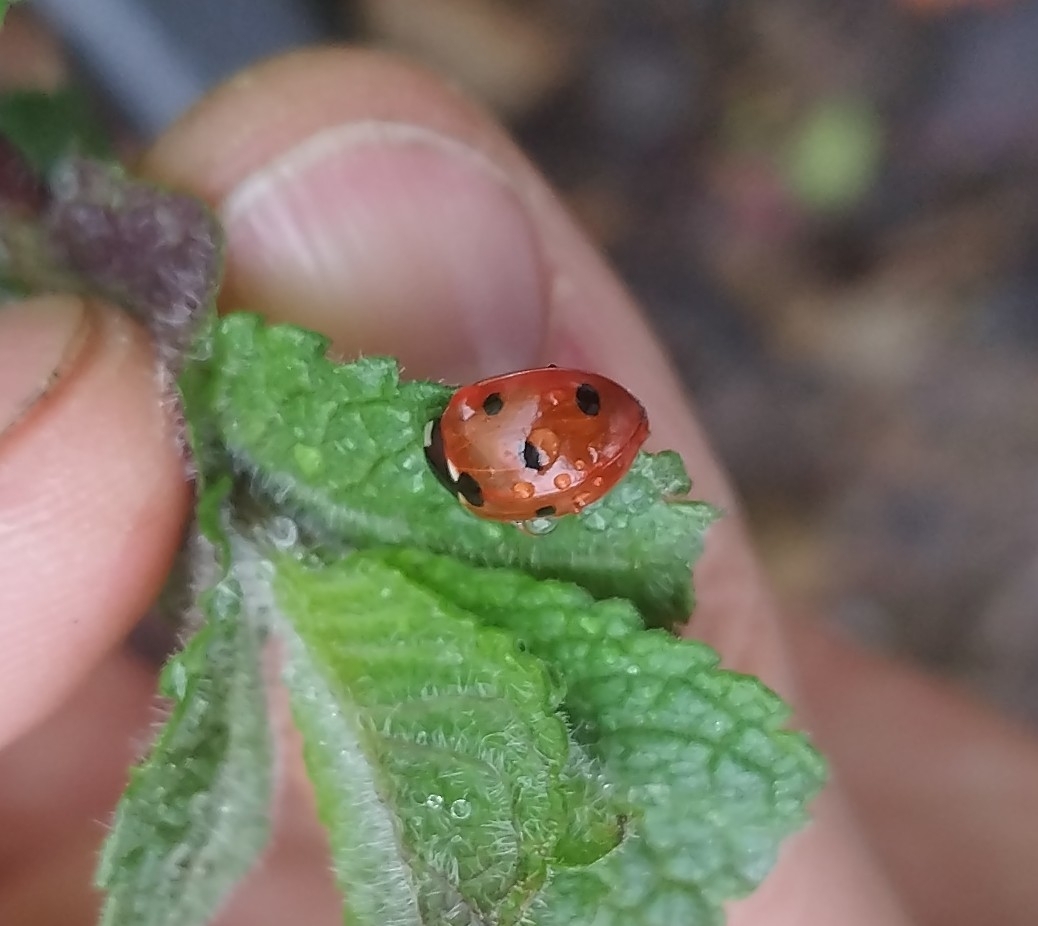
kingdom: Animalia
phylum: Arthropoda
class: Insecta
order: Coleoptera
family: Coccinellidae
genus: Coccinella
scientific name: Coccinella septempunctata
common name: Sevenspotted lady beetle
